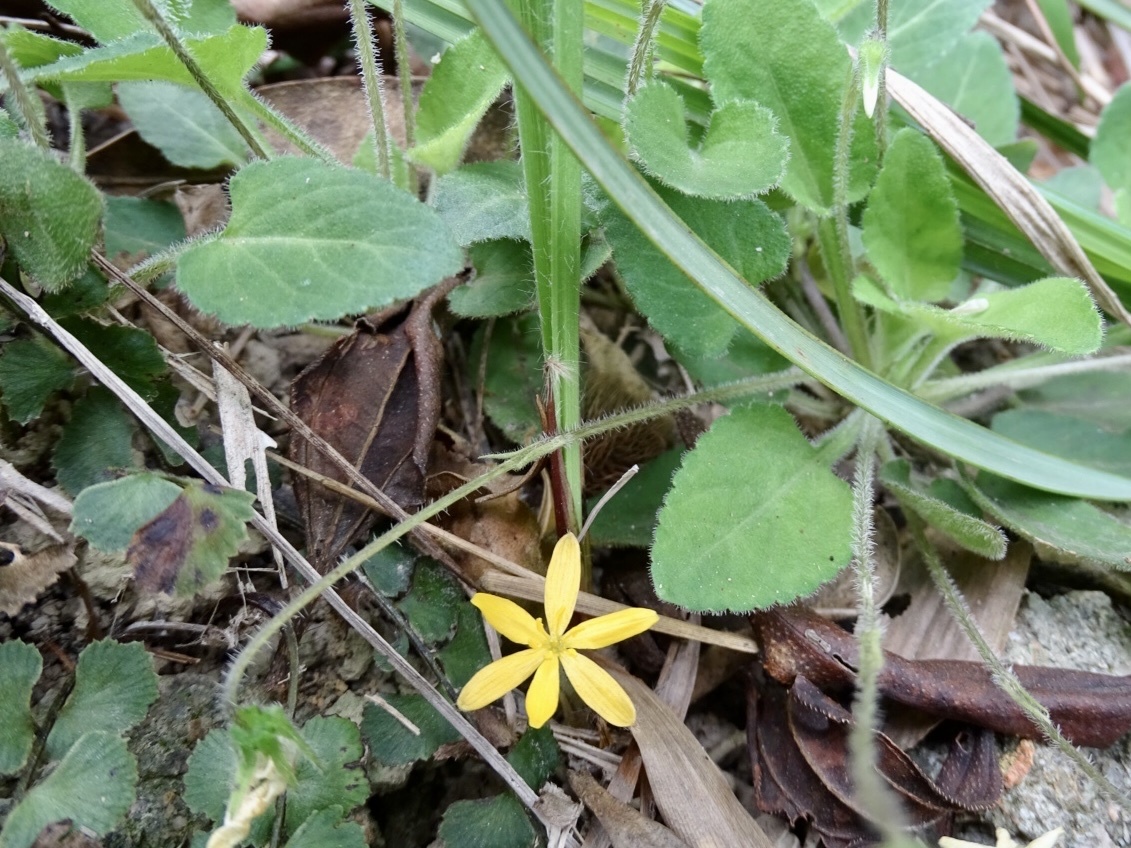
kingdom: Plantae
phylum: Tracheophyta
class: Liliopsida
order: Asparagales
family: Hypoxidaceae
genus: Curculigo
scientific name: Curculigo orchioides
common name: Golden eye-grass
